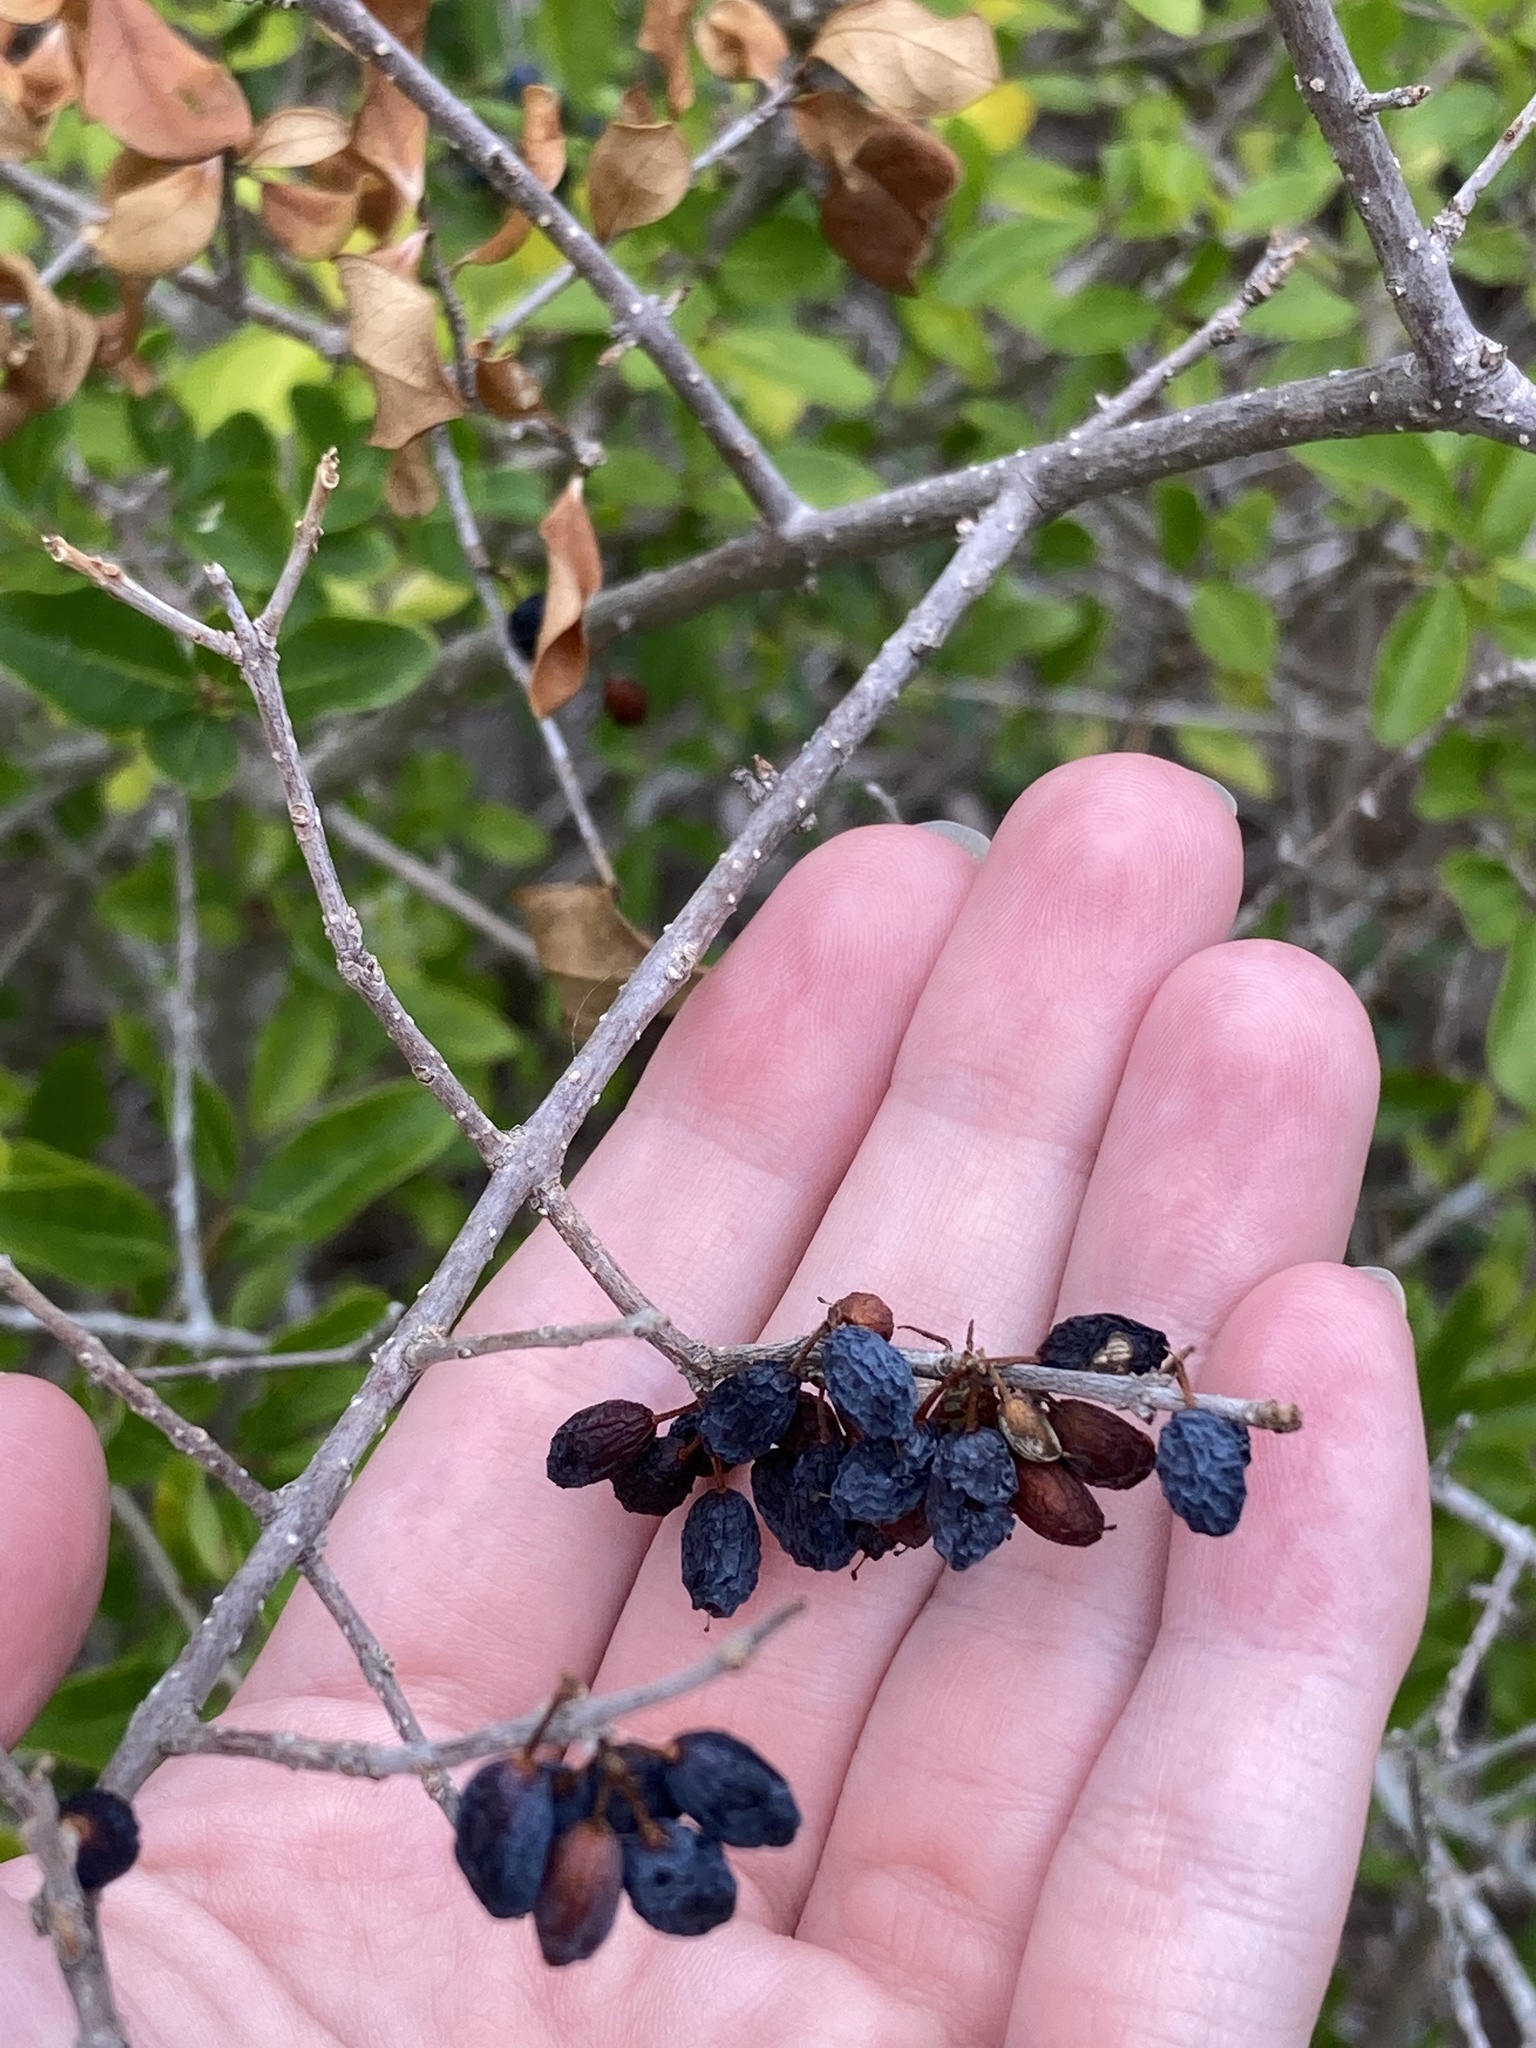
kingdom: Plantae
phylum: Tracheophyta
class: Magnoliopsida
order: Lamiales
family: Oleaceae
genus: Forestiera
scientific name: Forestiera segregata
